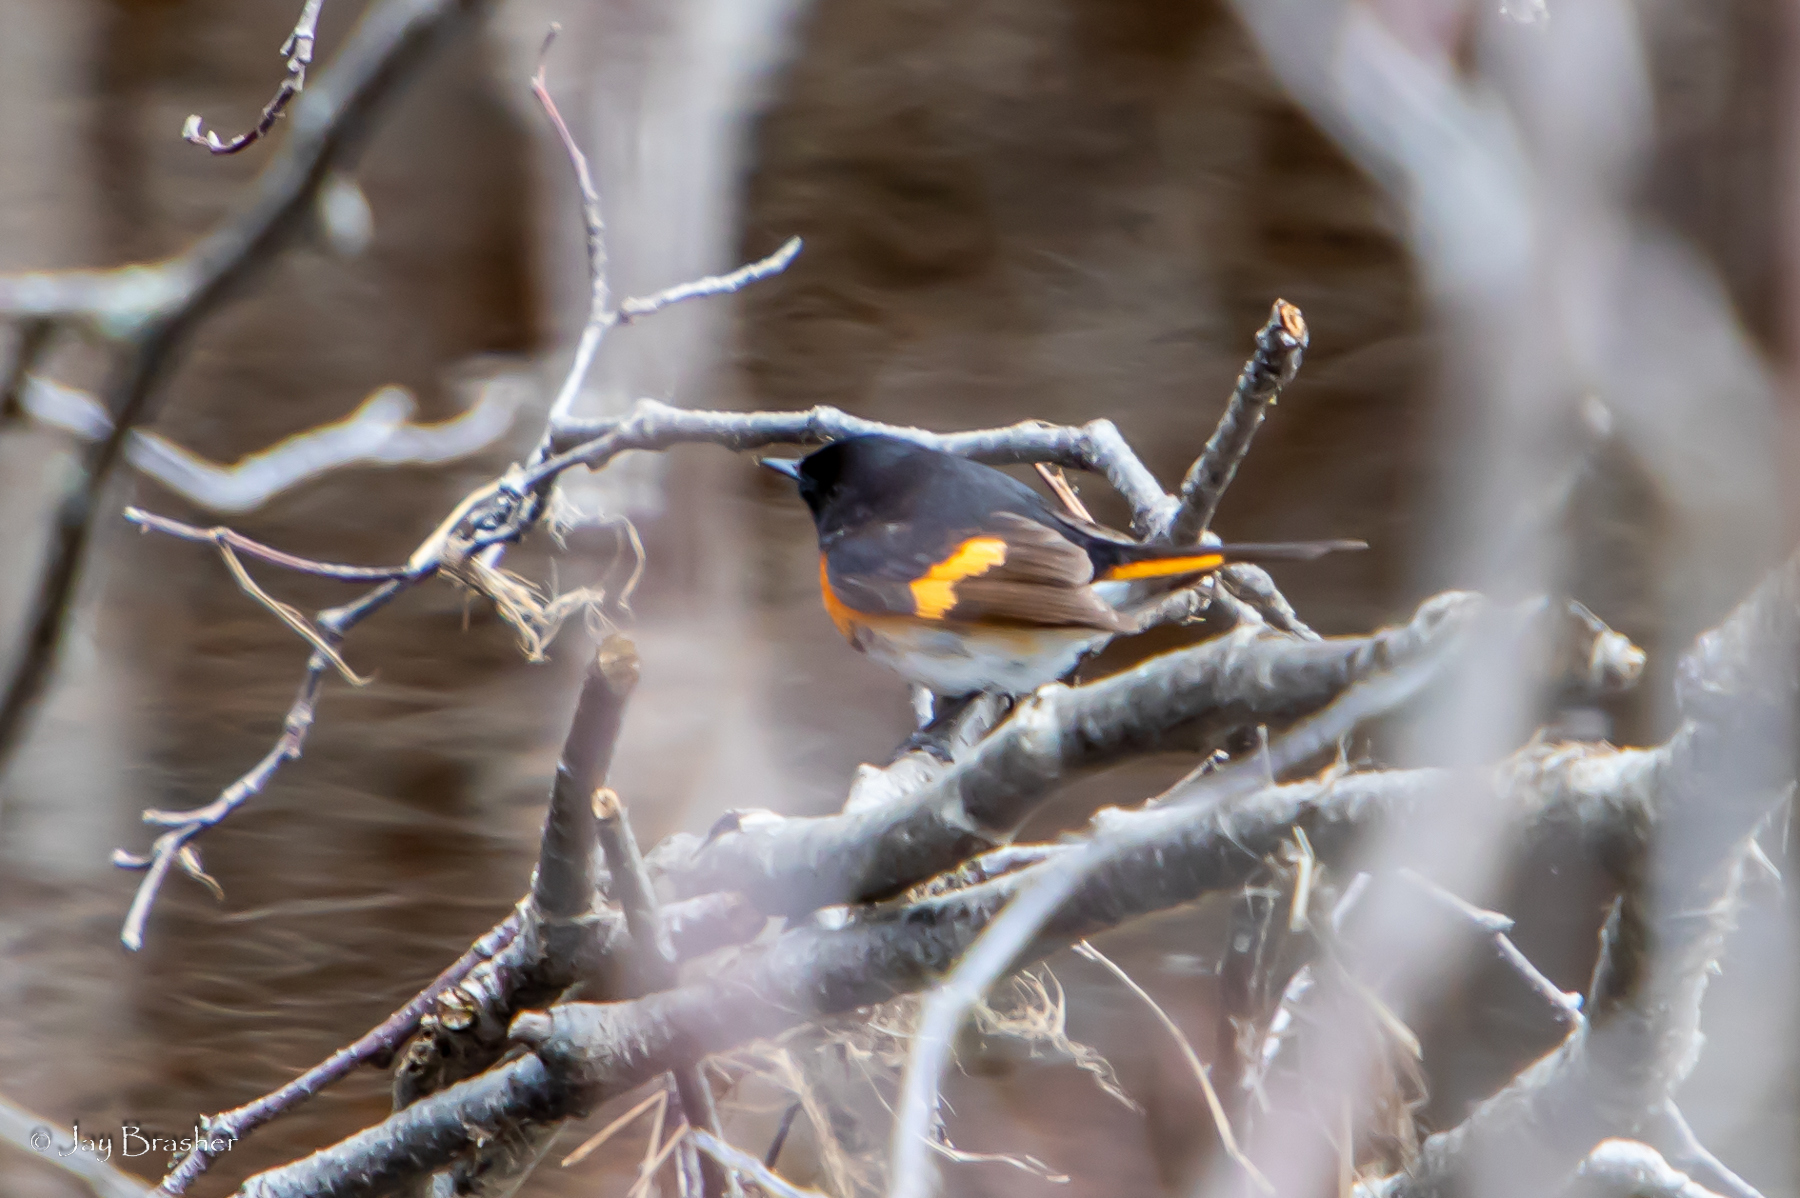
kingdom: Animalia
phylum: Chordata
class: Aves
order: Passeriformes
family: Parulidae
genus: Setophaga
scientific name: Setophaga ruticilla
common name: American redstart
